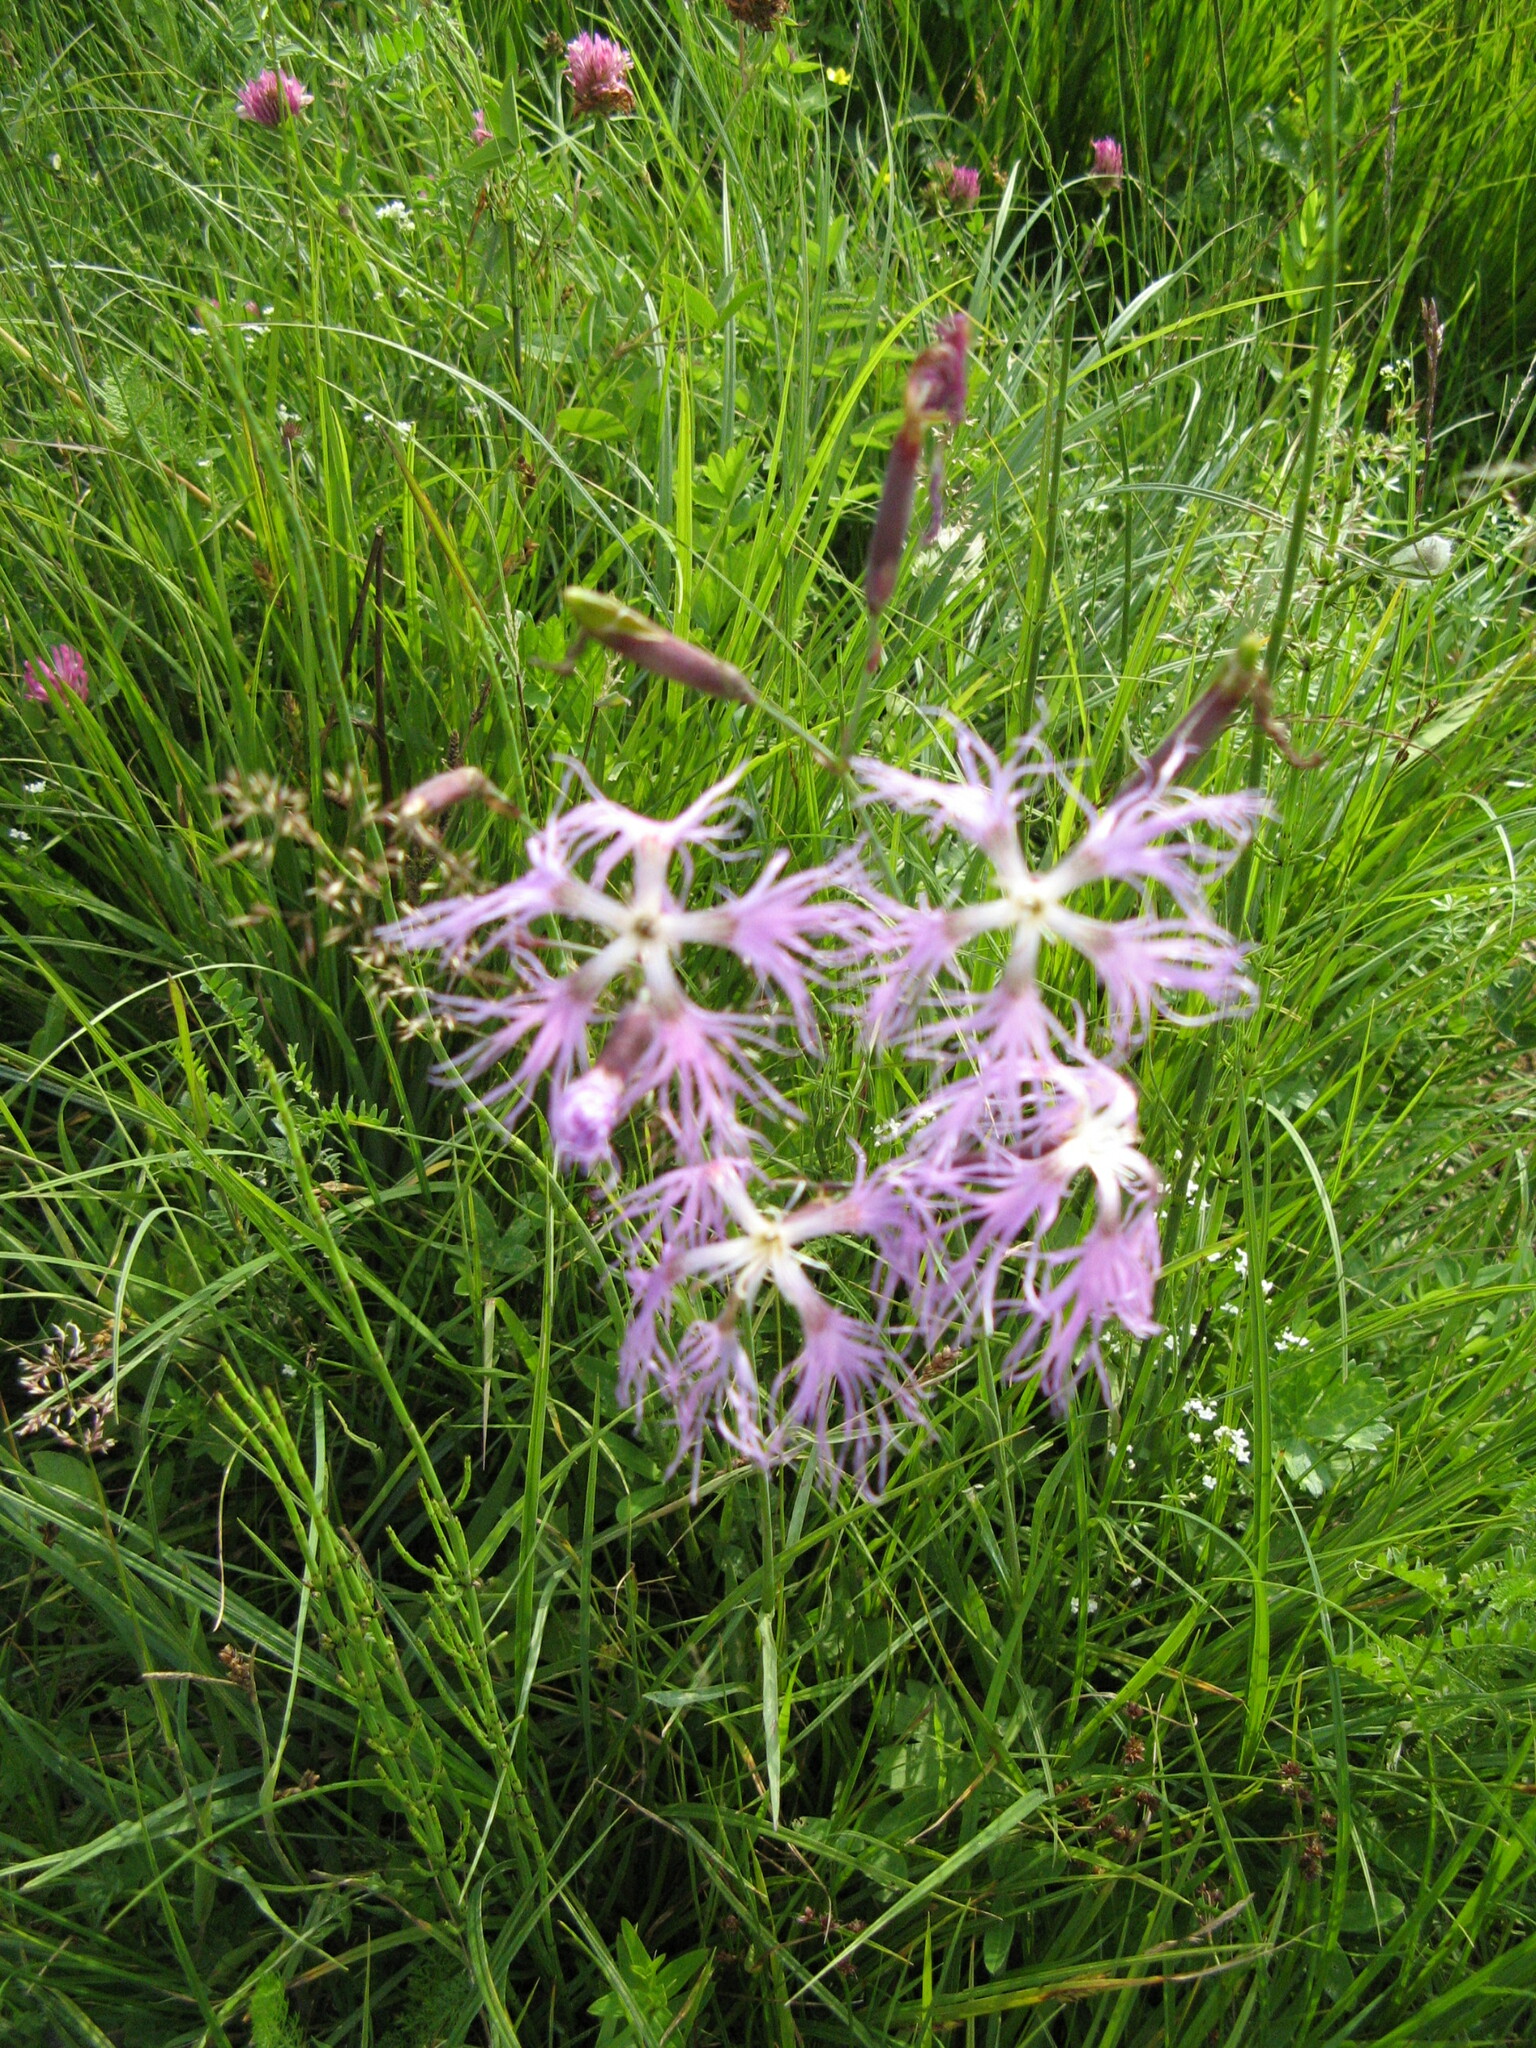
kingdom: Plantae
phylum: Tracheophyta
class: Magnoliopsida
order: Caryophyllales
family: Caryophyllaceae
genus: Dianthus
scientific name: Dianthus superbus
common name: Fringed pink
